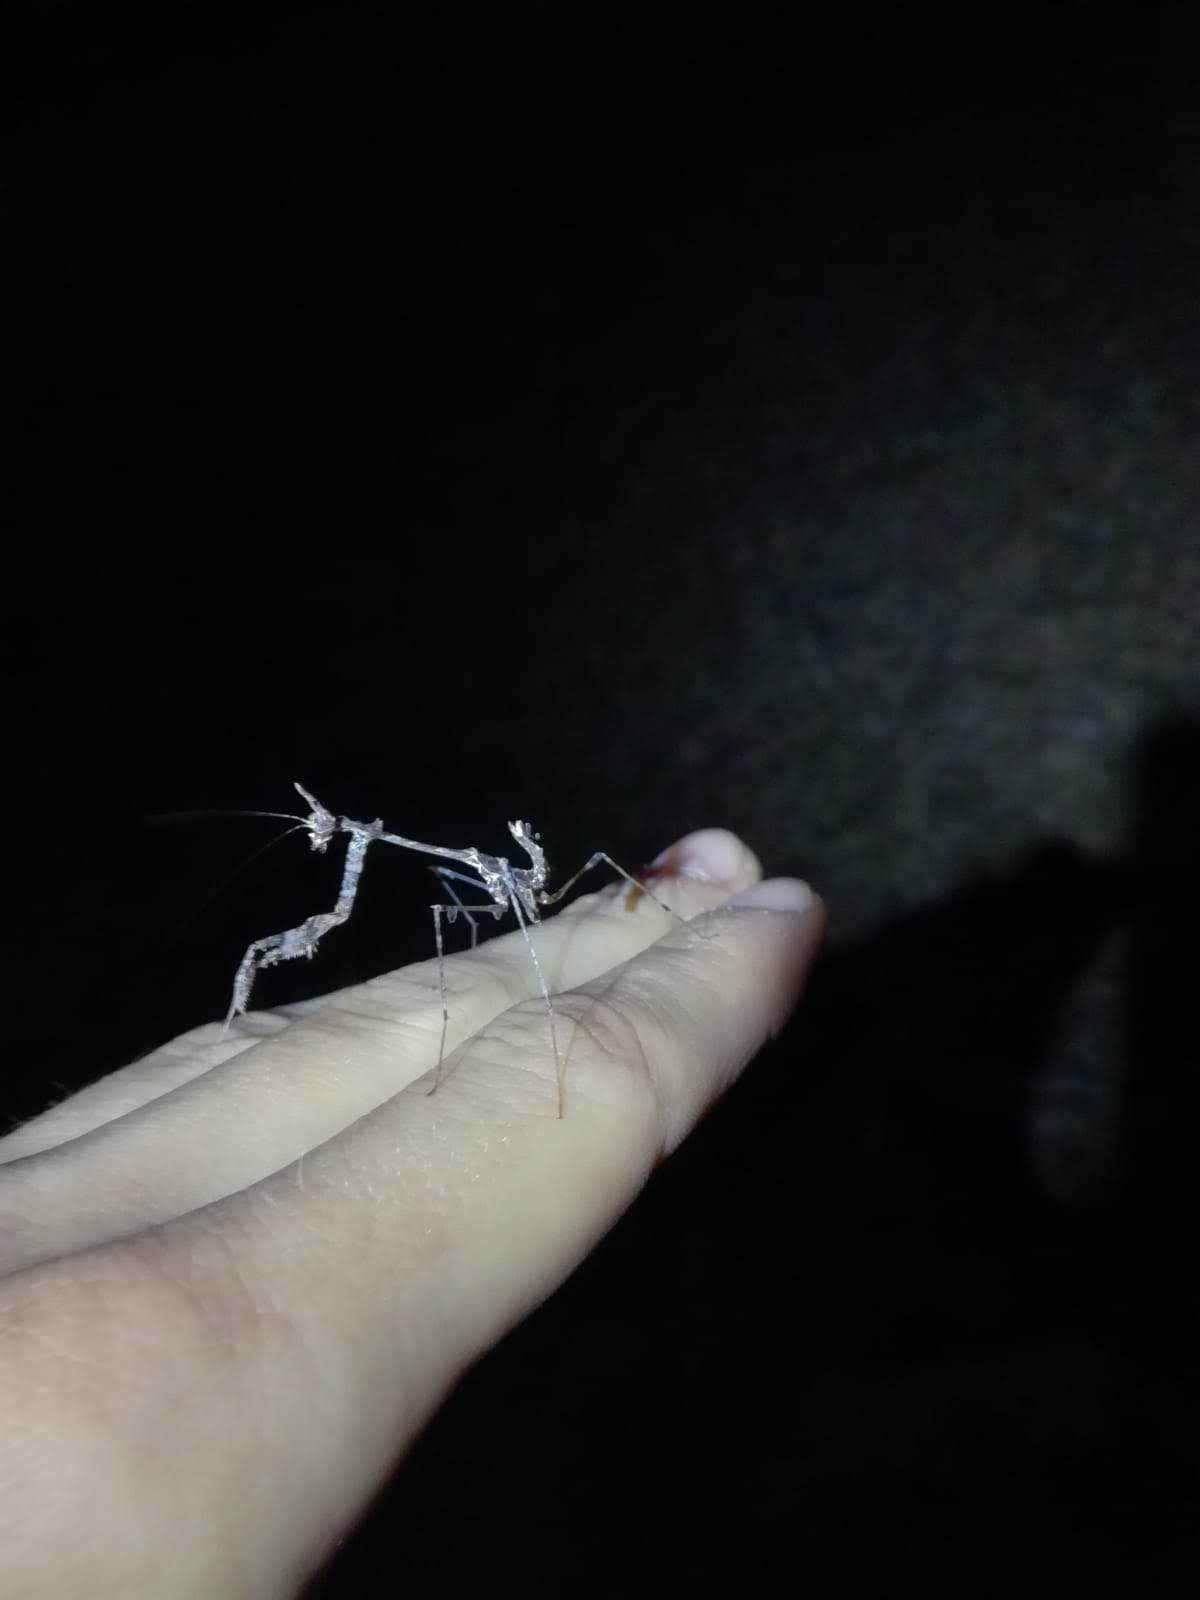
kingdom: Animalia
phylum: Arthropoda
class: Insecta
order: Mantodea
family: Hymenopodidae
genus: Sibylla
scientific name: Sibylla pretiosa
